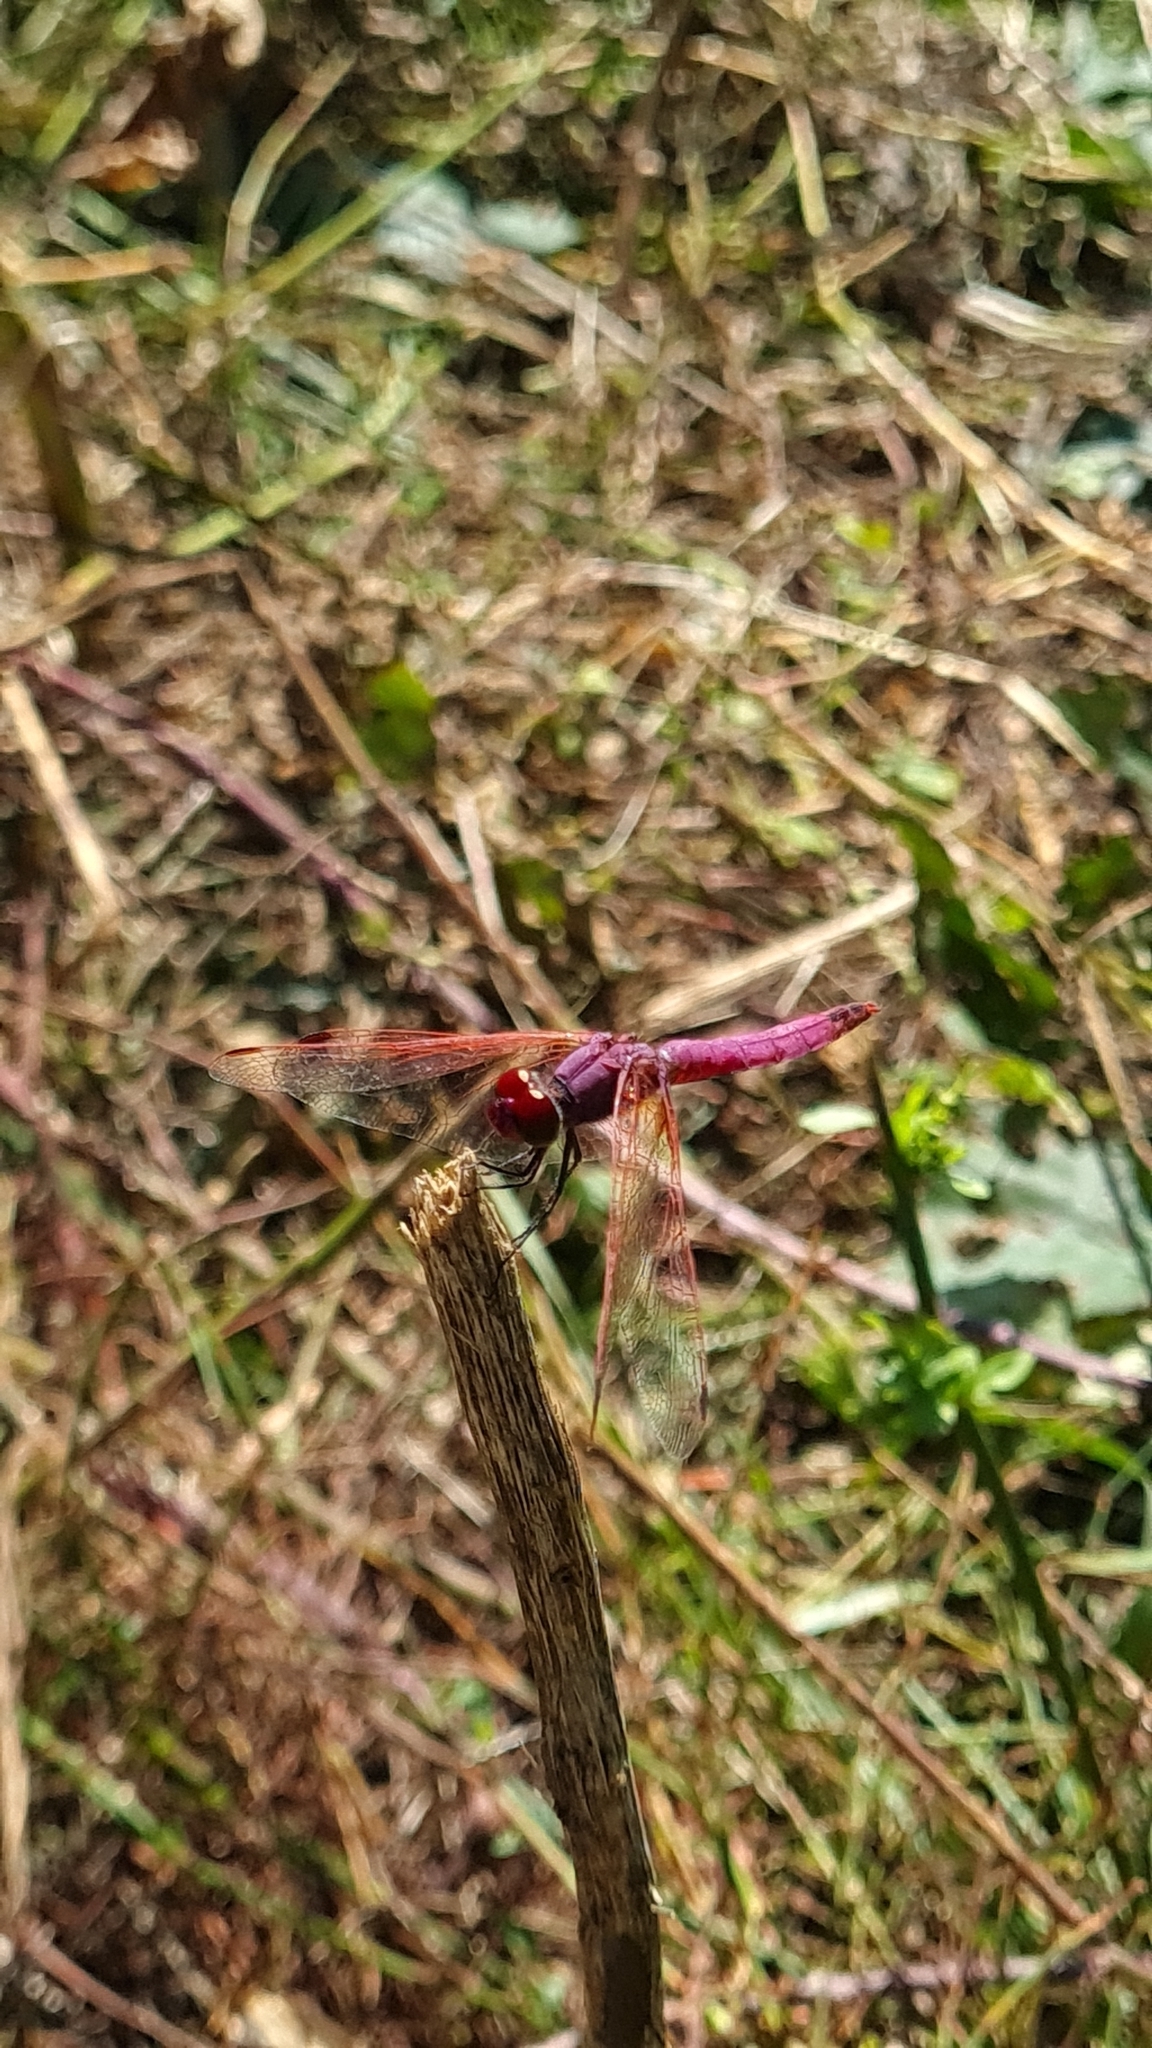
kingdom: Animalia
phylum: Arthropoda
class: Insecta
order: Odonata
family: Libellulidae
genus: Trithemis
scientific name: Trithemis annulata
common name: Violet dropwing
